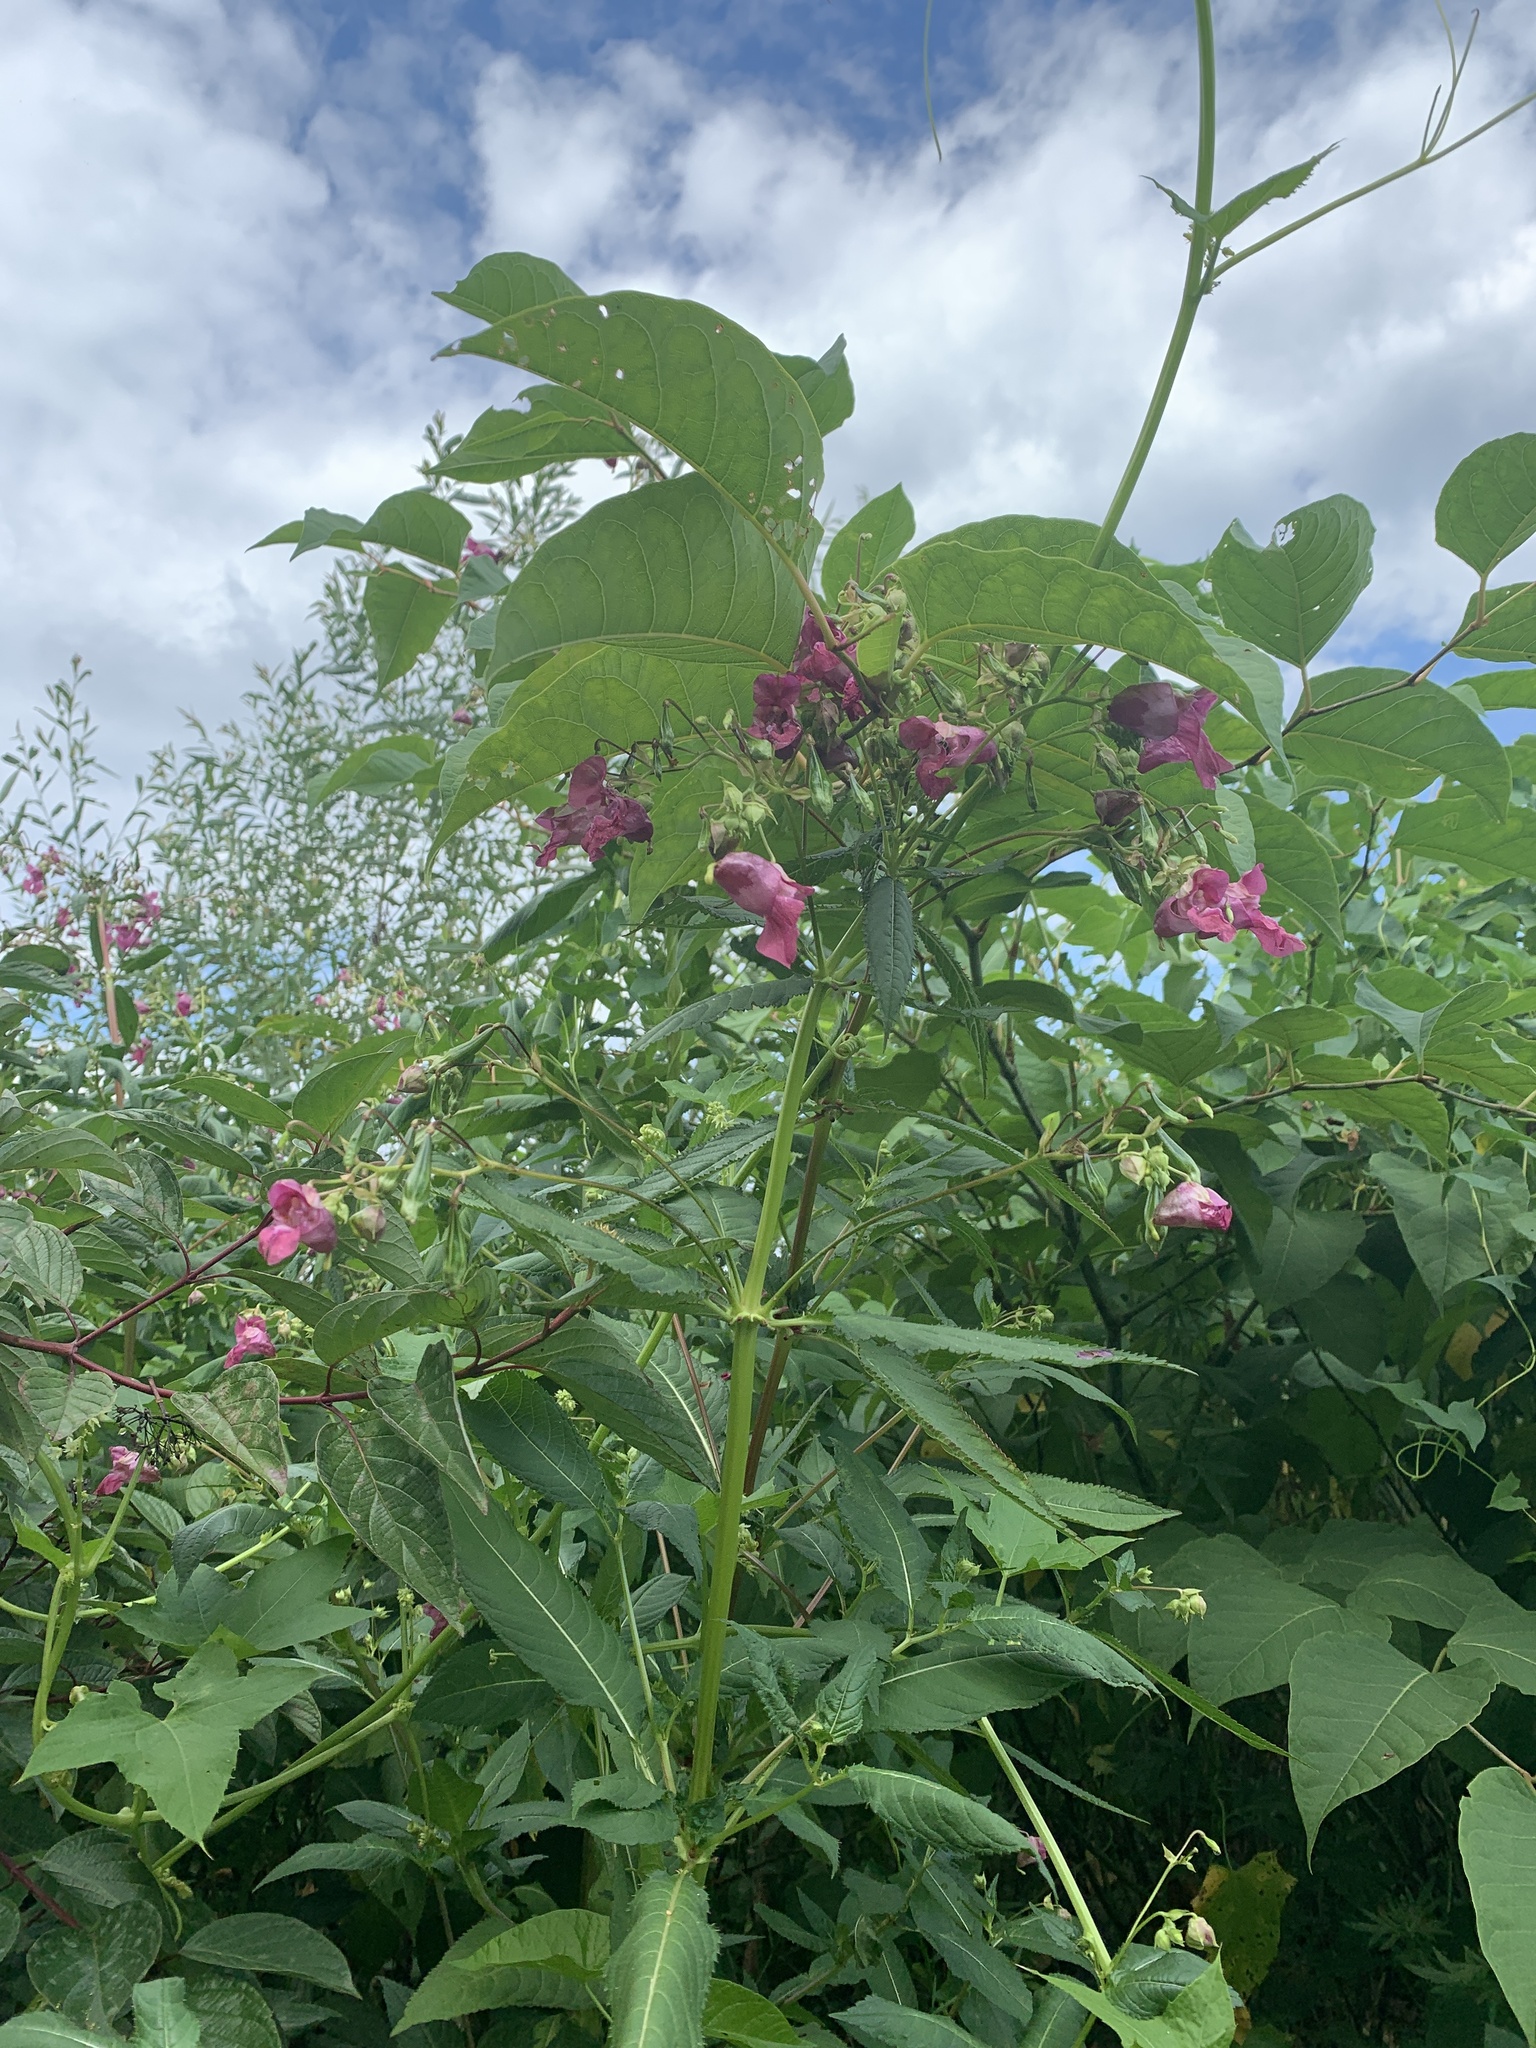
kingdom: Plantae
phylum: Tracheophyta
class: Magnoliopsida
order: Ericales
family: Balsaminaceae
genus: Impatiens
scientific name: Impatiens glandulifera
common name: Himalayan balsam
